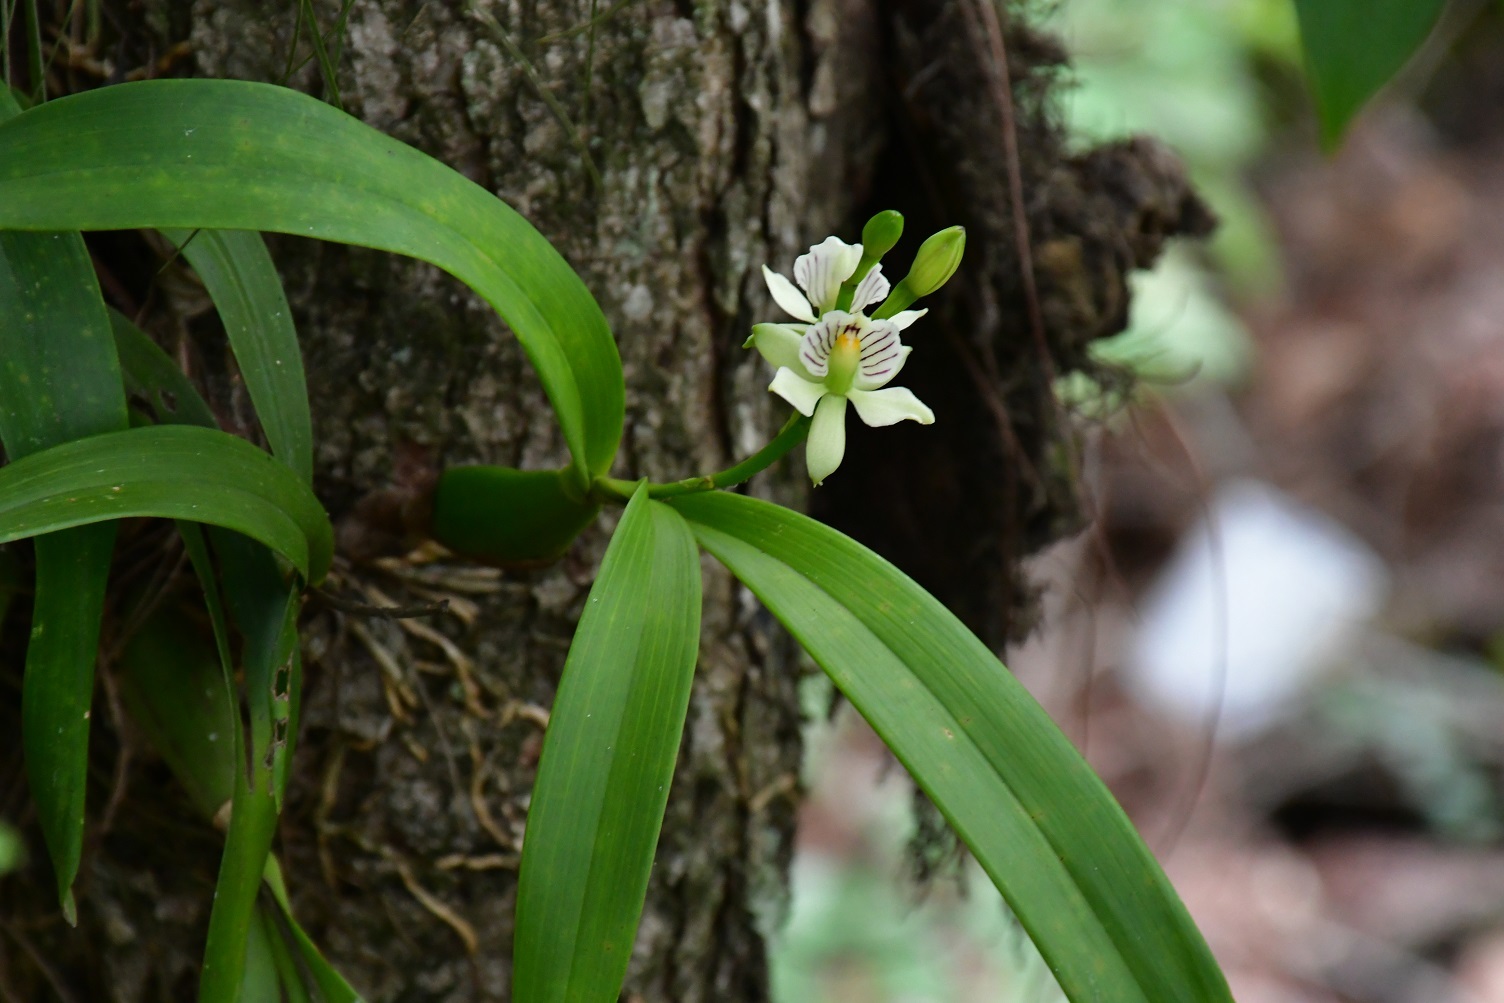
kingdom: Plantae
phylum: Tracheophyta
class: Liliopsida
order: Asparagales
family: Orchidaceae
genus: Prosthechea
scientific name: Prosthechea radiata
